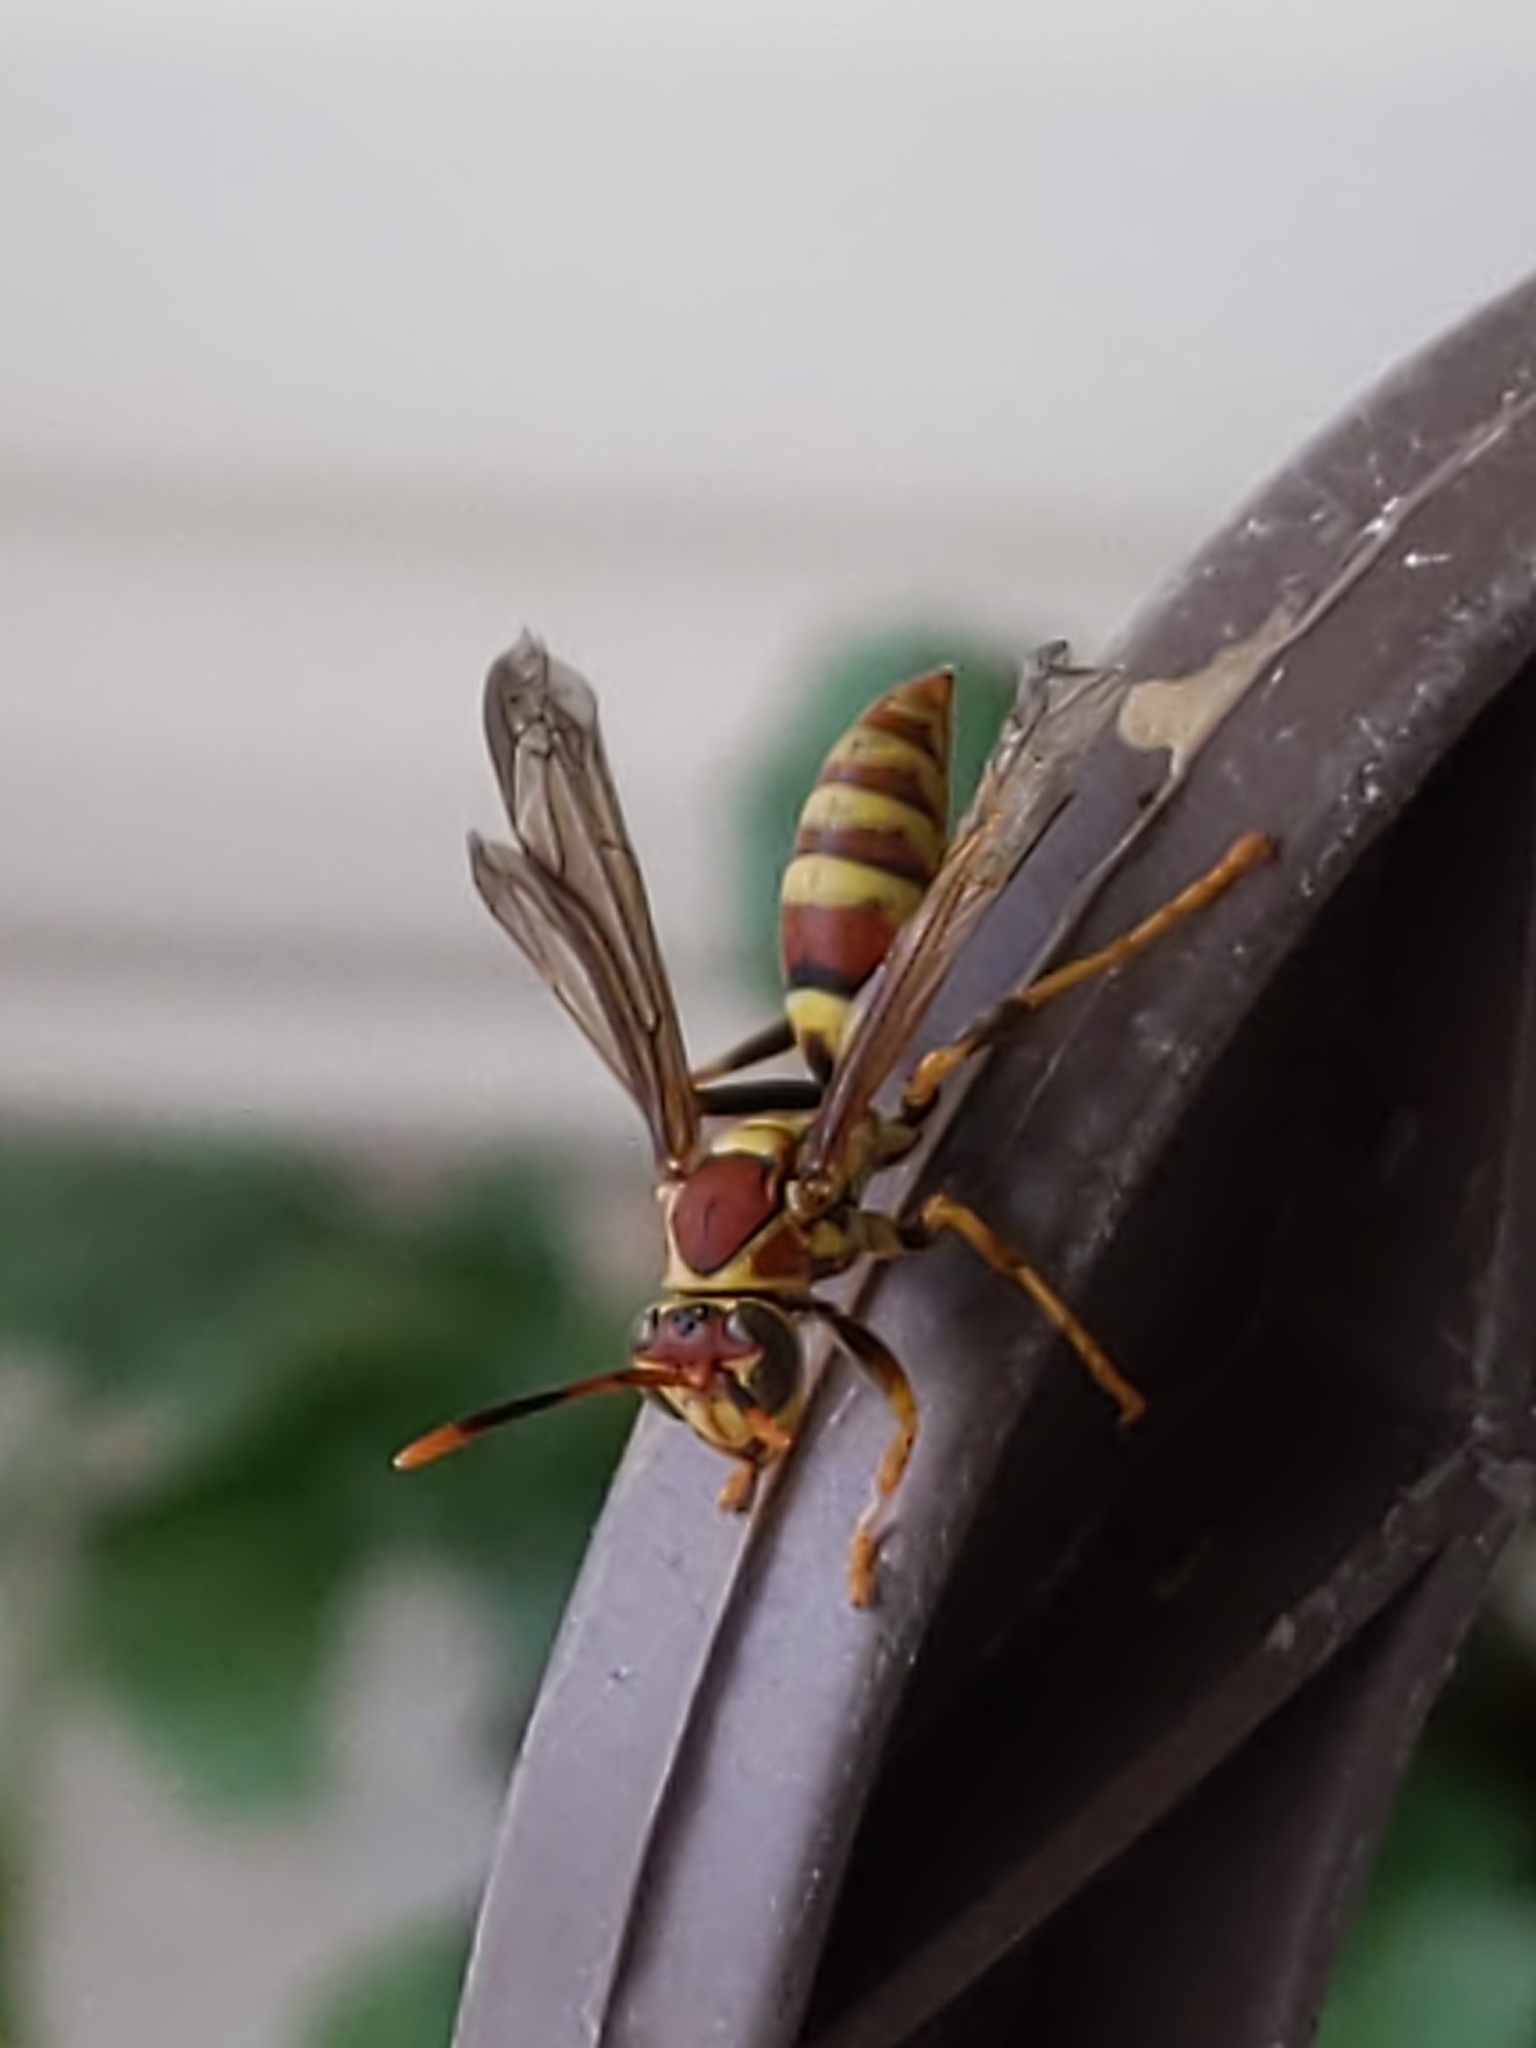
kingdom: Animalia
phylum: Arthropoda
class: Insecta
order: Hymenoptera
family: Eumenidae
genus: Polistes
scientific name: Polistes exclamans
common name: Paper wasp
